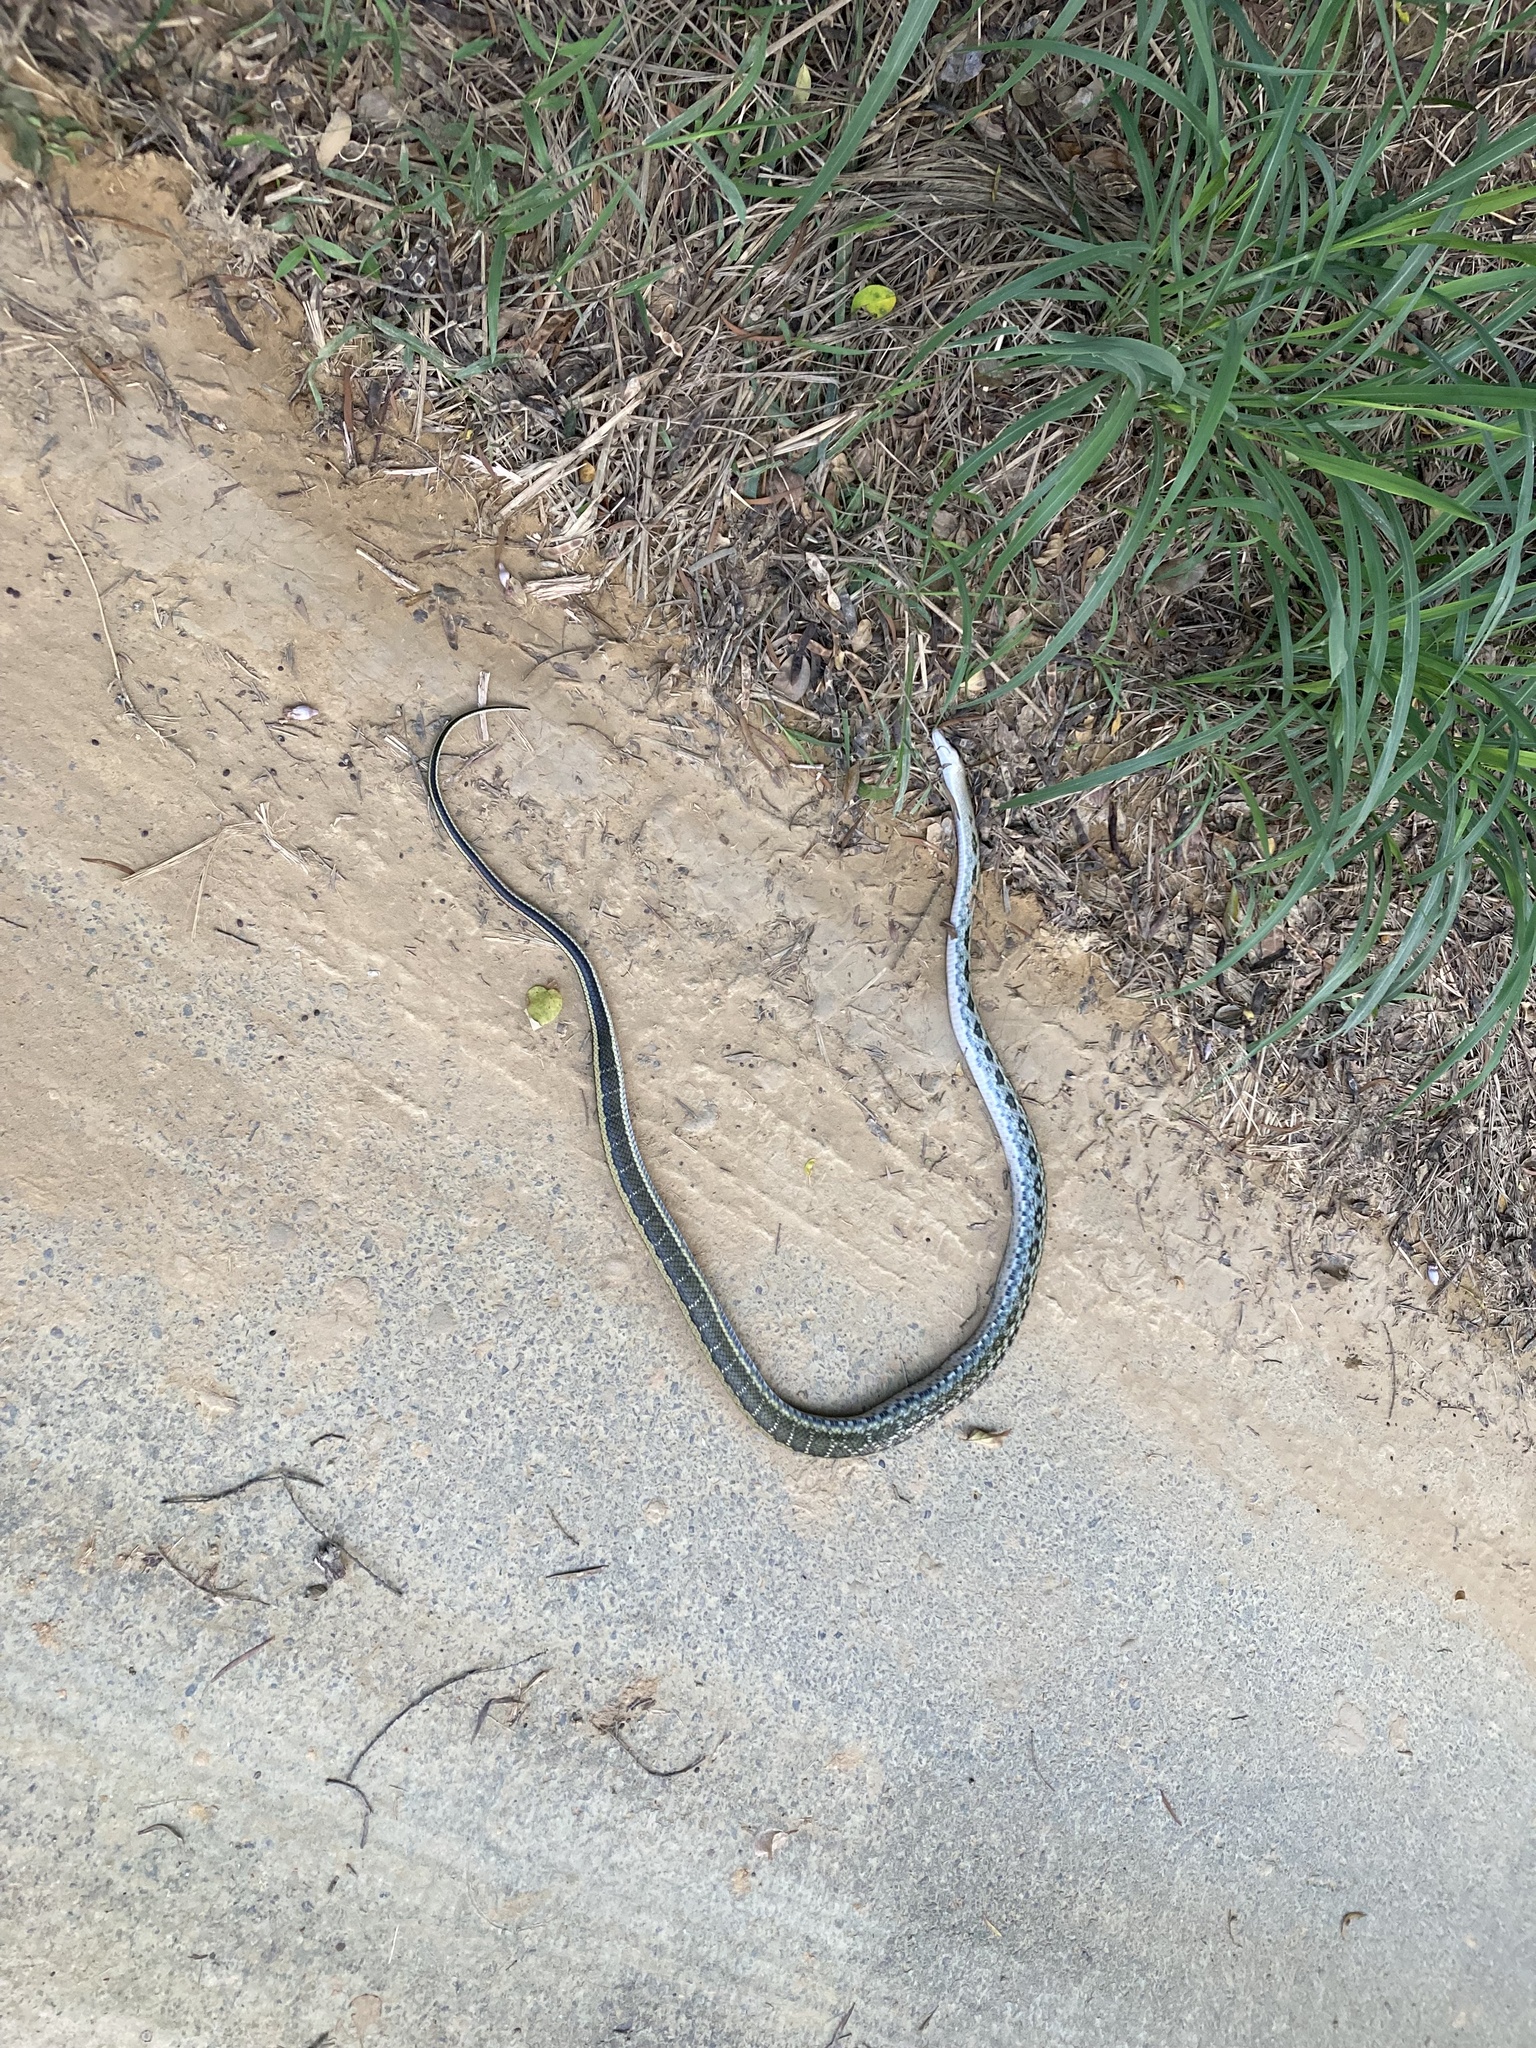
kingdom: Animalia
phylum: Chordata
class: Squamata
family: Colubridae
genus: Elaphe
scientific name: Elaphe taeniura
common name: Beauty snake
